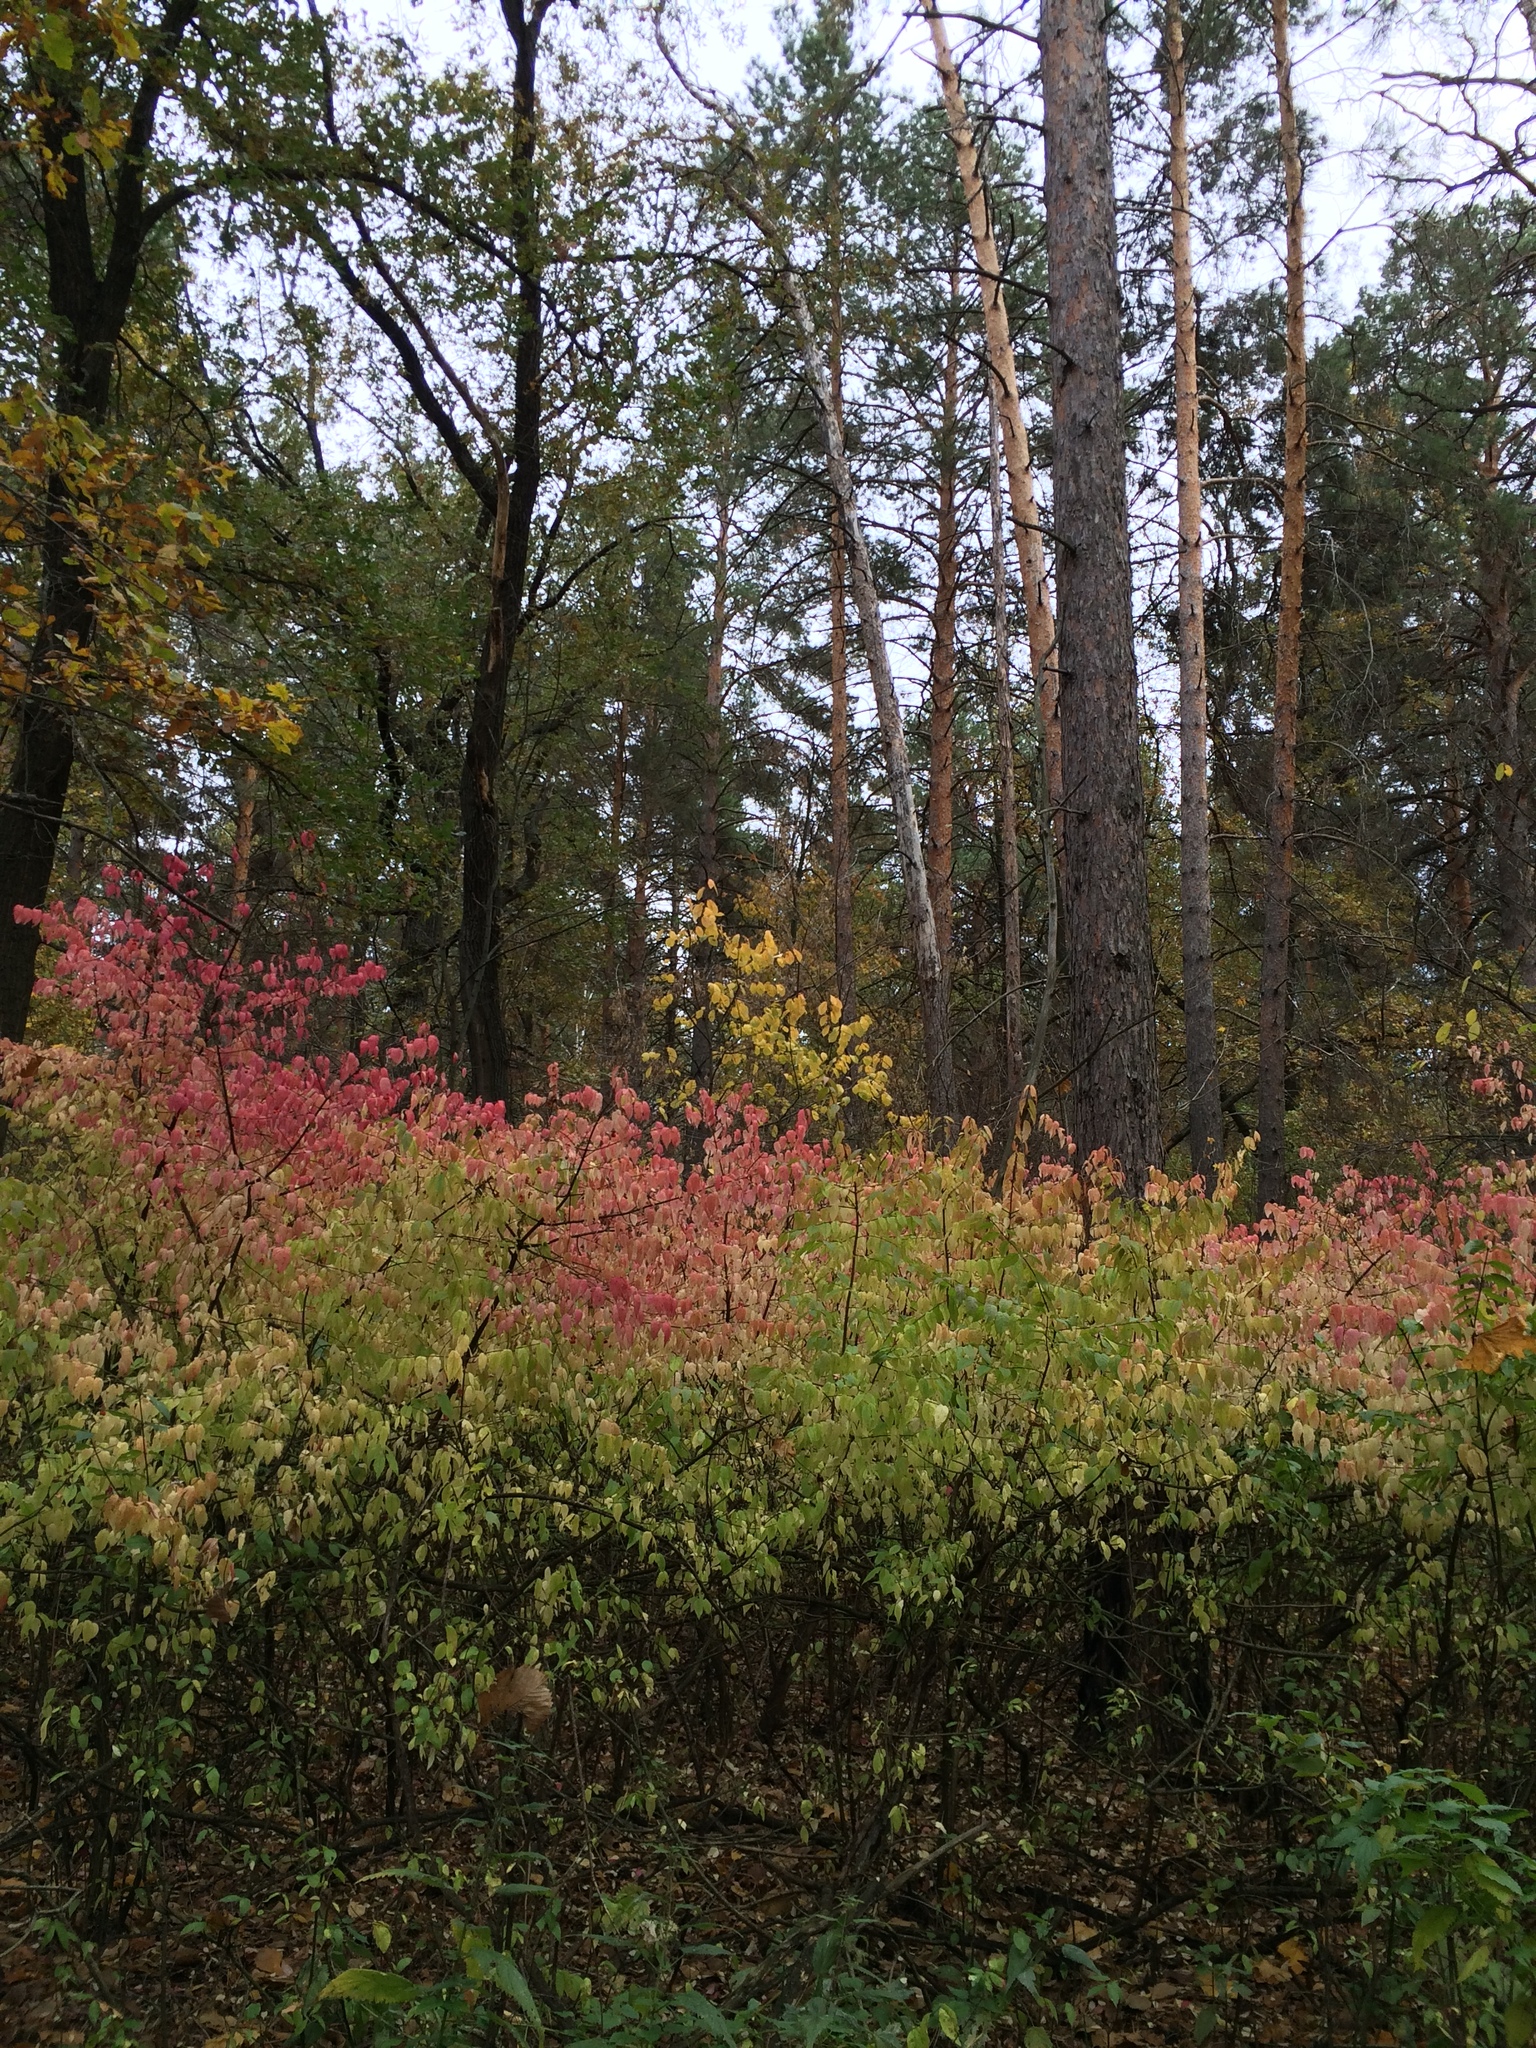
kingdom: Plantae
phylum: Tracheophyta
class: Magnoliopsida
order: Celastrales
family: Celastraceae
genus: Euonymus
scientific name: Euonymus verrucosus
